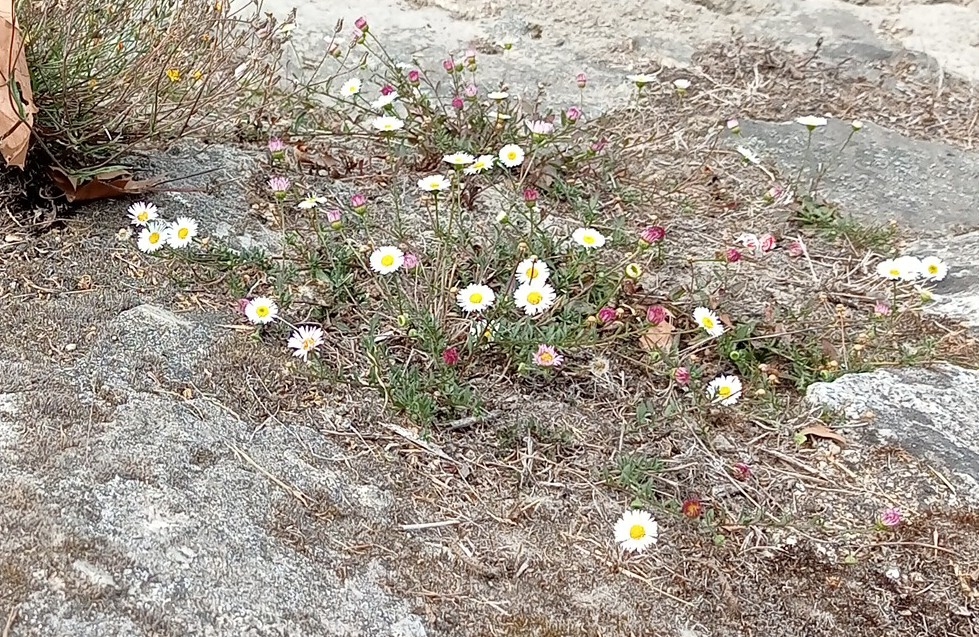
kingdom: Plantae
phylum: Tracheophyta
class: Magnoliopsida
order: Asterales
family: Asteraceae
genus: Erigeron
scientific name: Erigeron karvinskianus
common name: Mexican fleabane
